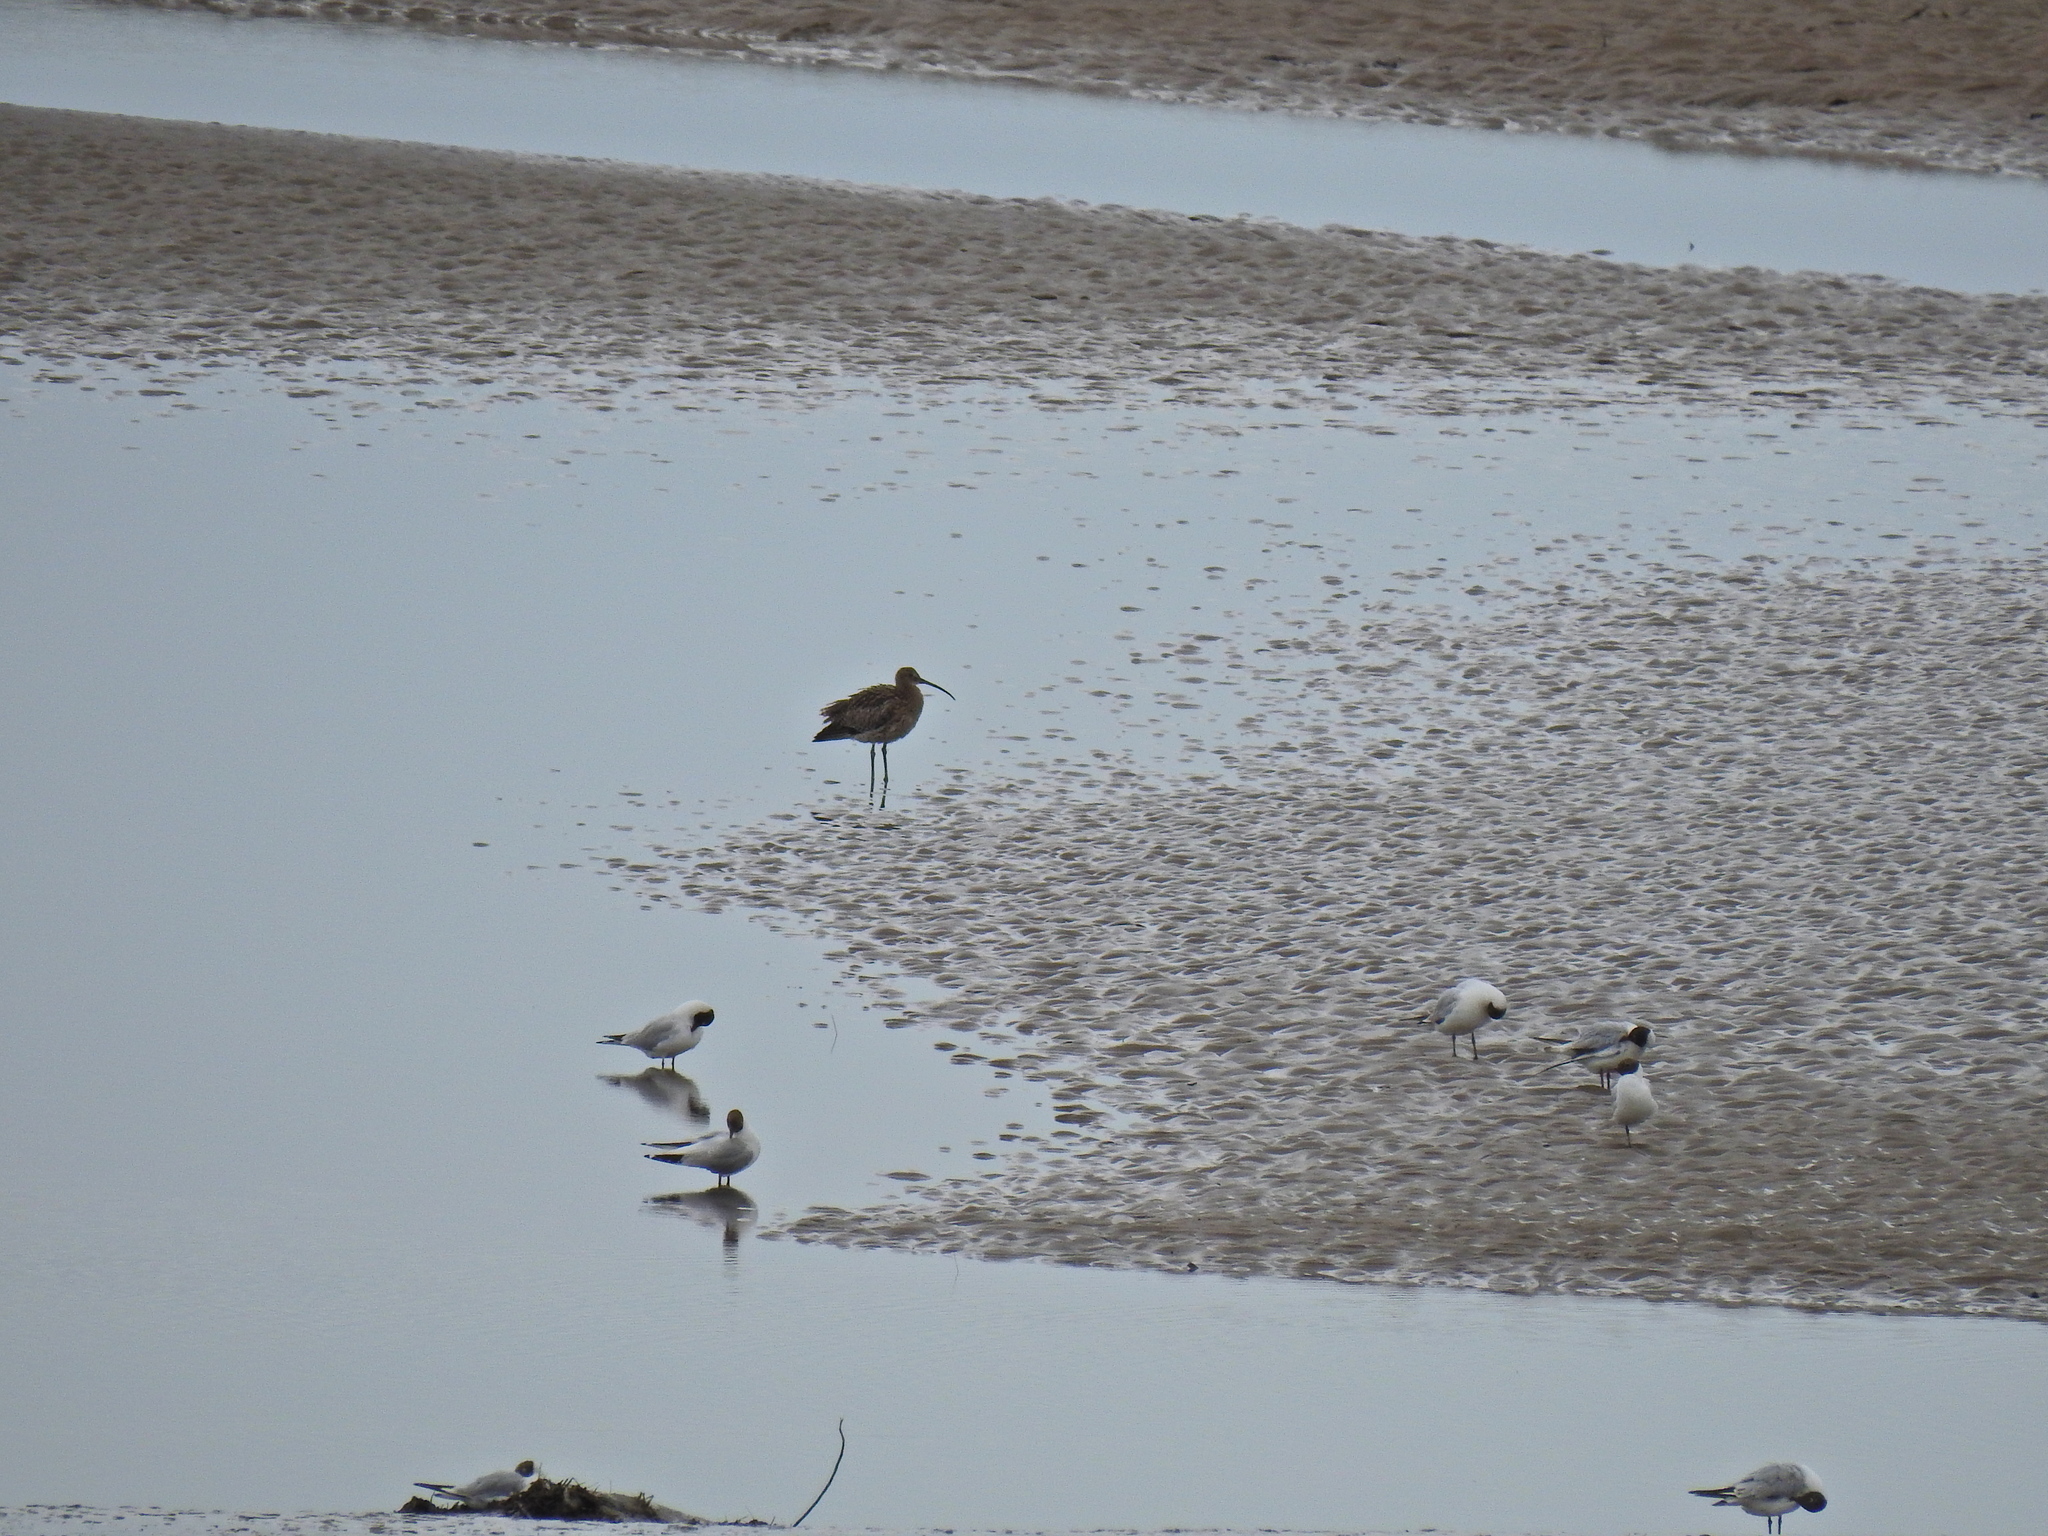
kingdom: Animalia
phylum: Chordata
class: Aves
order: Charadriiformes
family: Scolopacidae
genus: Numenius
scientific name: Numenius arquata
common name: Eurasian curlew
